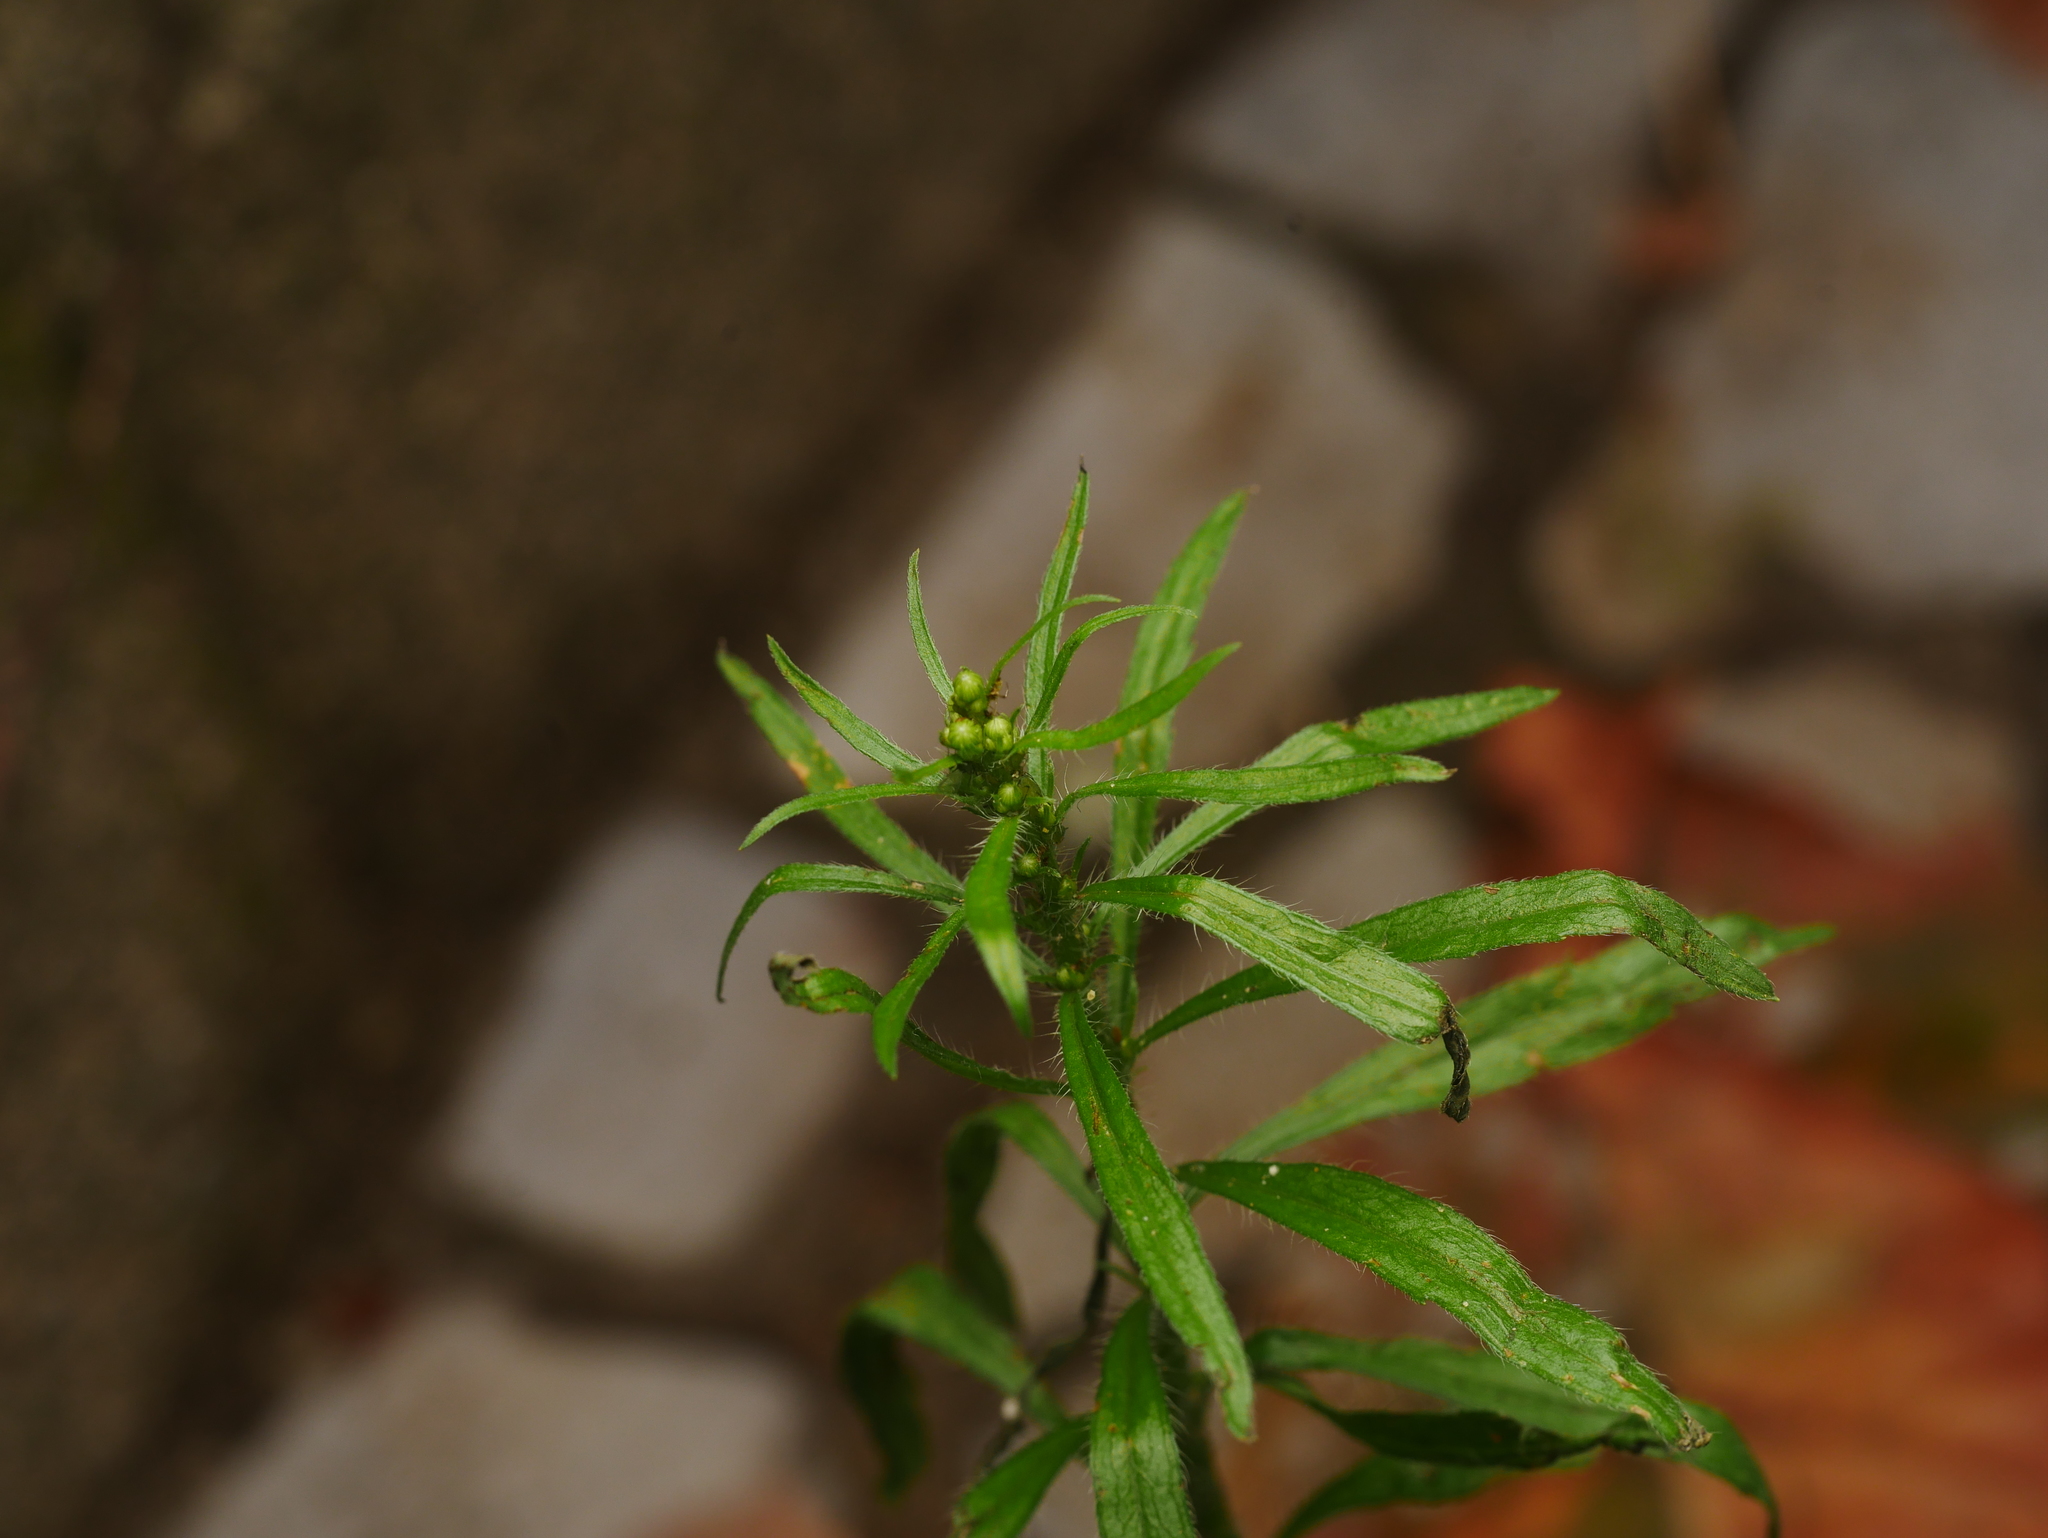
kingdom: Plantae
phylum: Tracheophyta
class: Magnoliopsida
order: Asterales
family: Asteraceae
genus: Erigeron
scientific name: Erigeron canadensis
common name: Canadian fleabane
